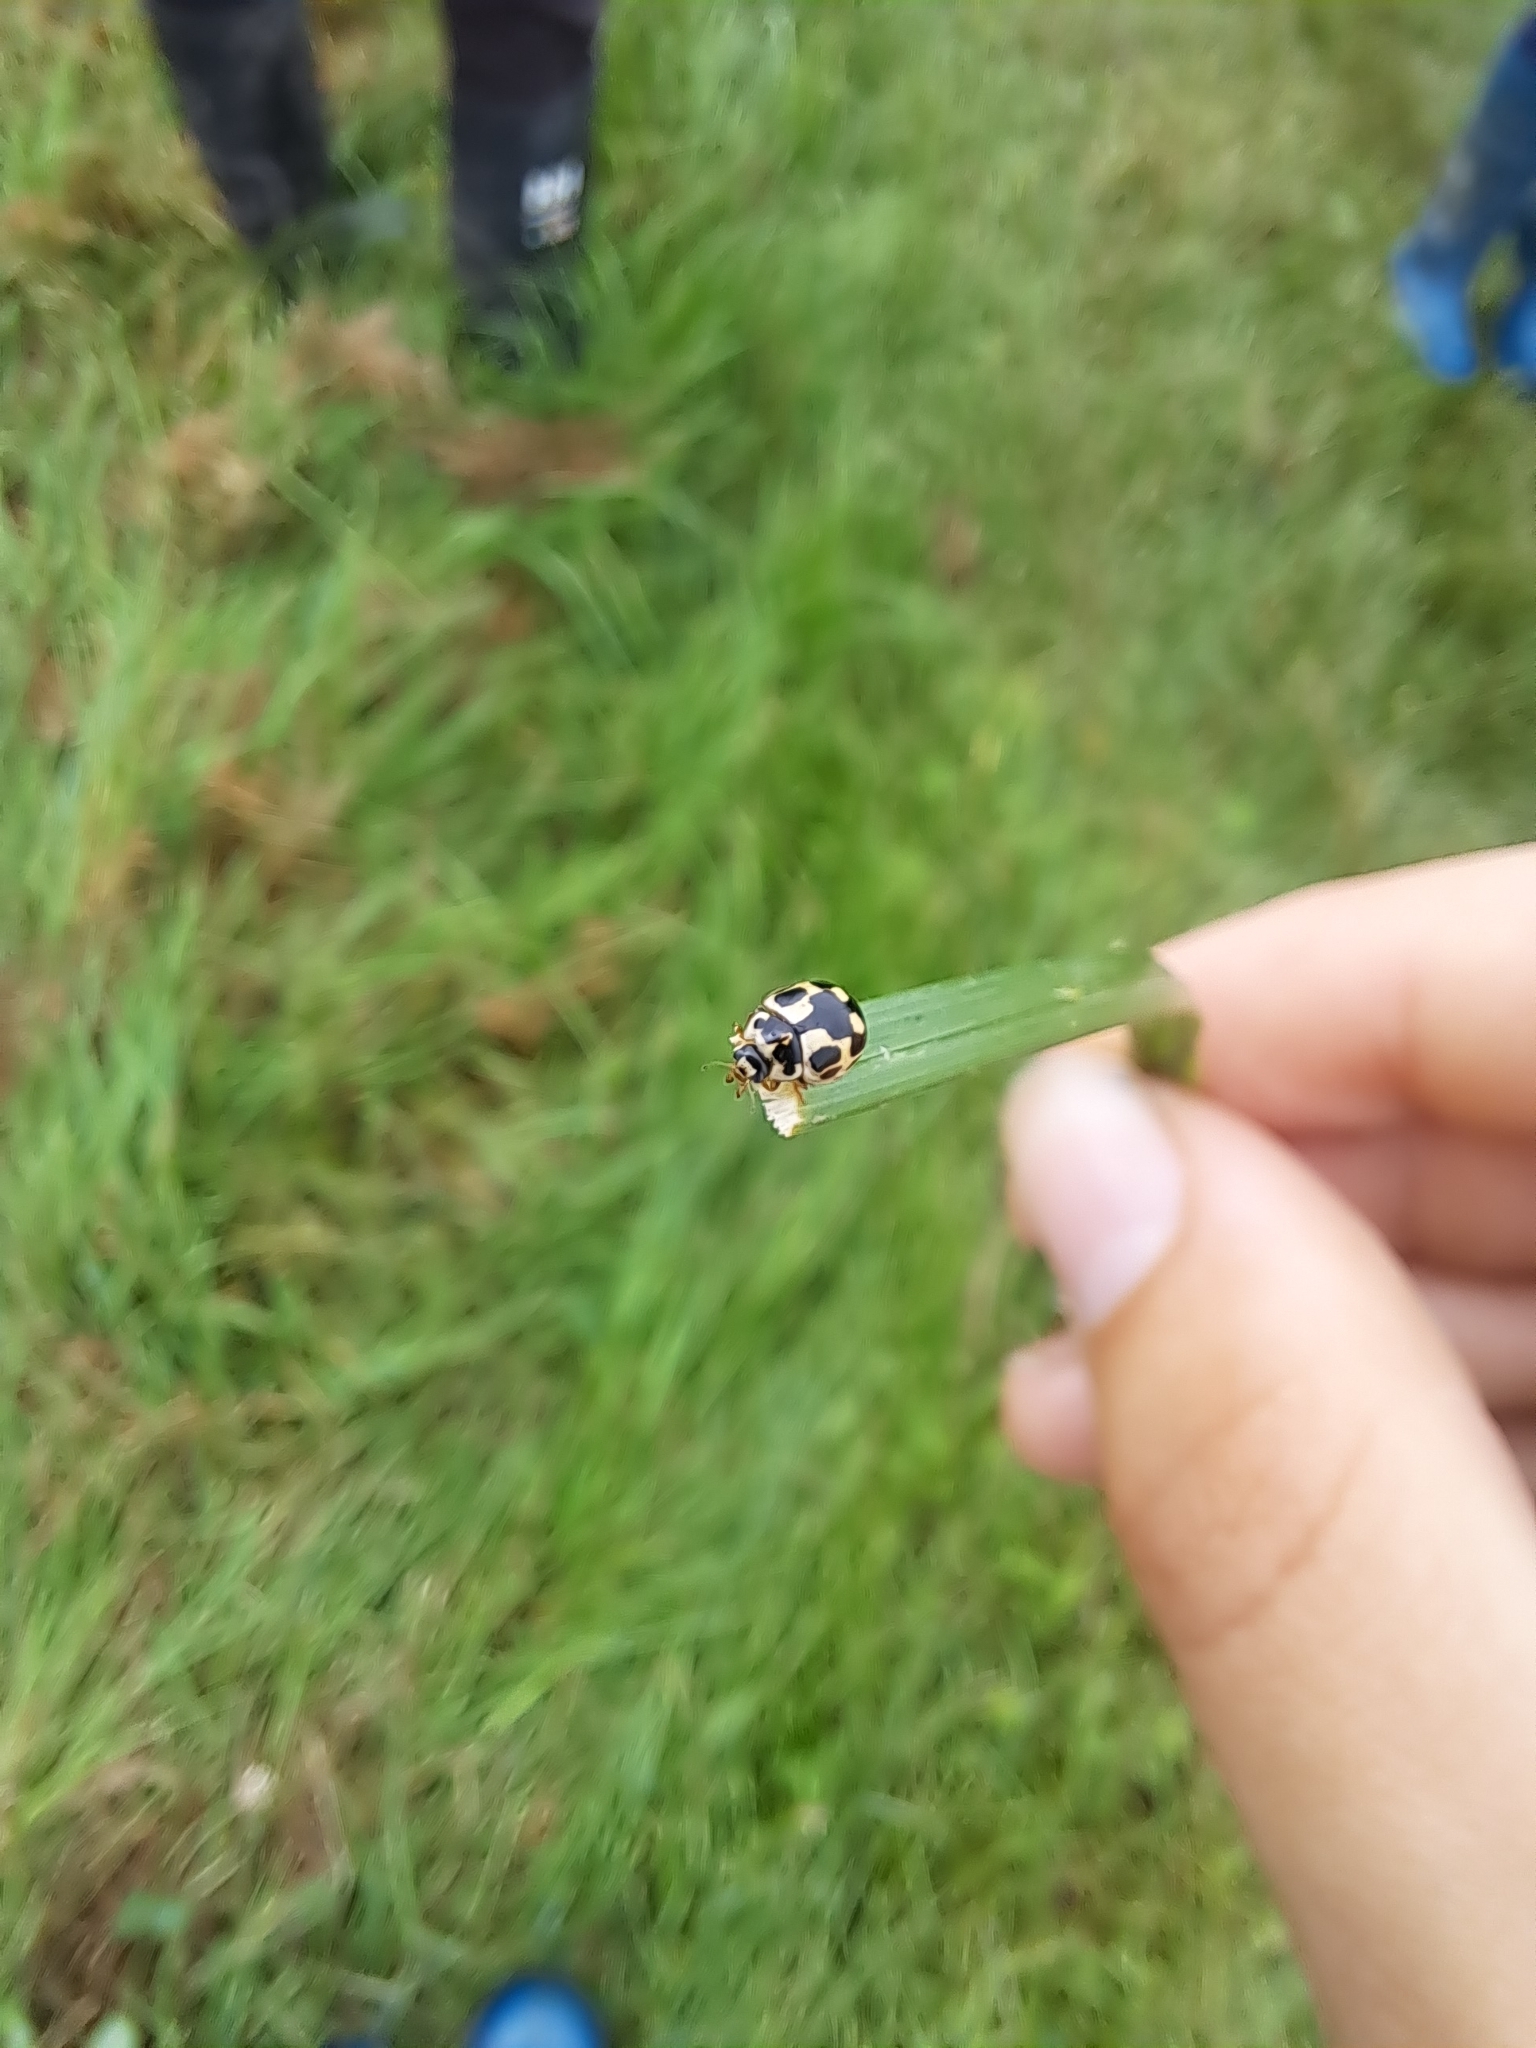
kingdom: Animalia
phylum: Arthropoda
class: Insecta
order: Coleoptera
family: Coccinellidae
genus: Propylaea
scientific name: Propylaea quatuordecimpunctata
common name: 14-spotted ladybird beetle
